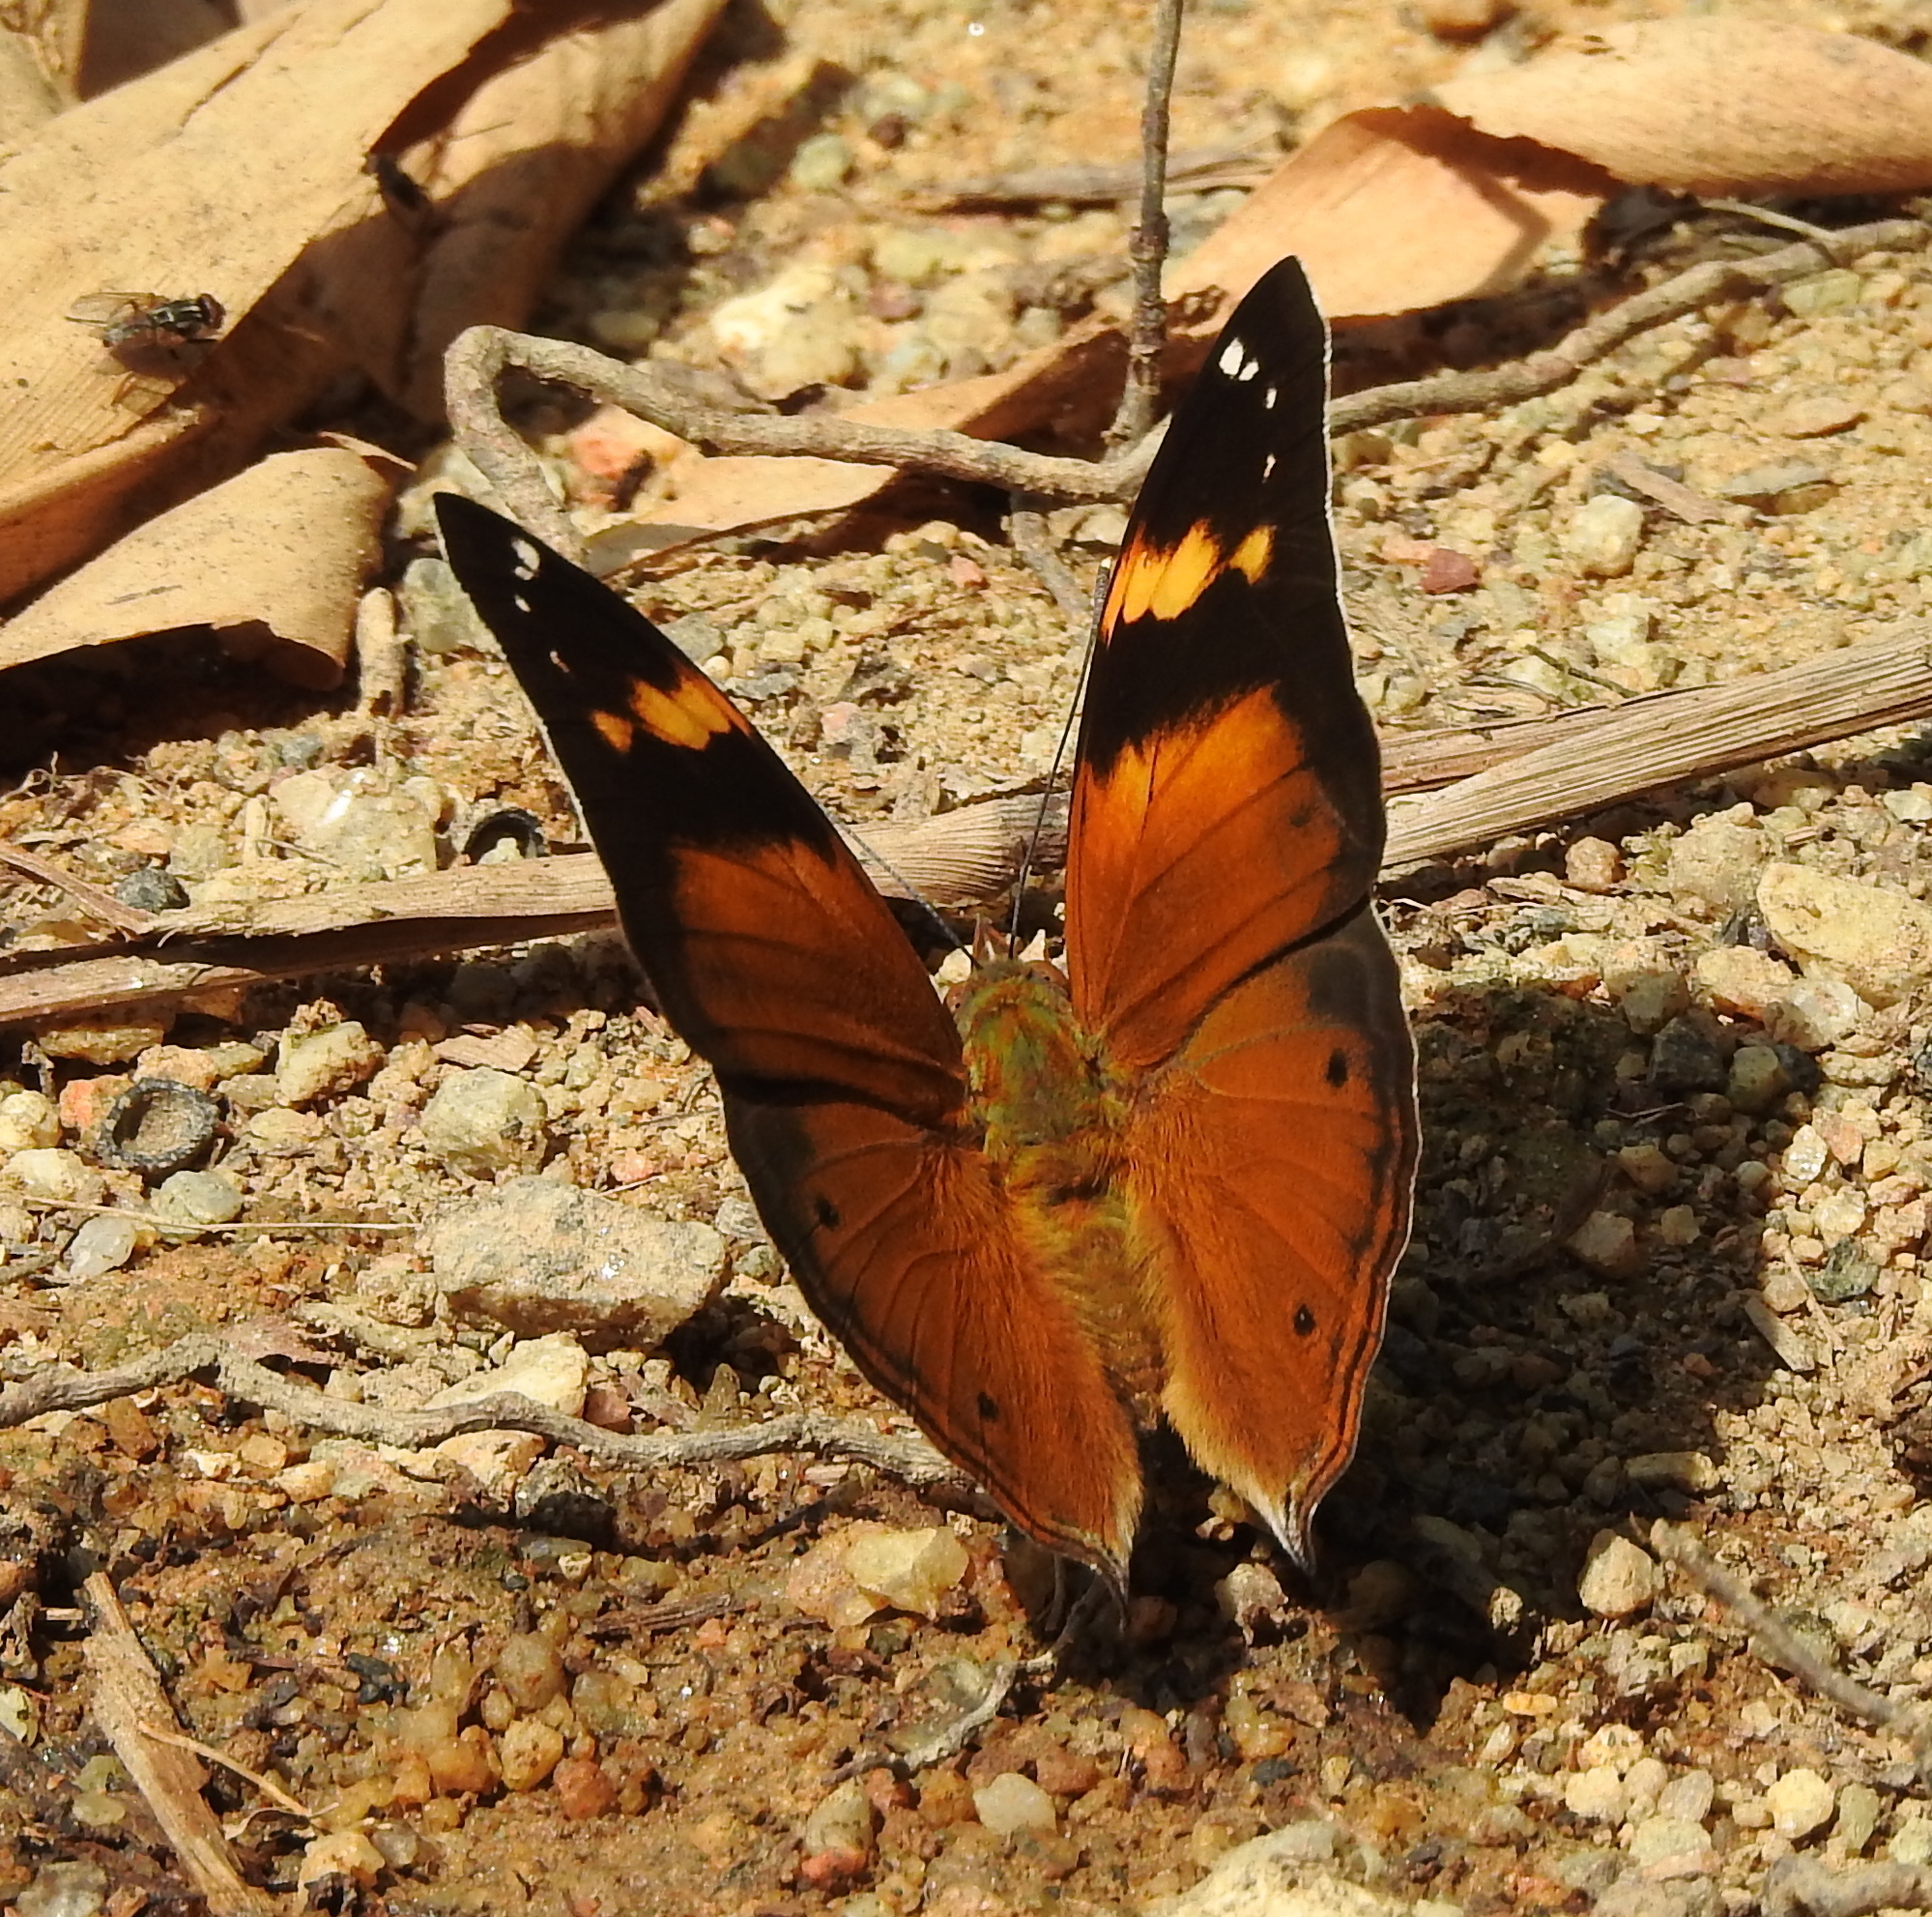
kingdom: Animalia
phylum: Arthropoda
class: Insecta
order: Lepidoptera
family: Nymphalidae
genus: Doleschallia
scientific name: Doleschallia bisaltide
